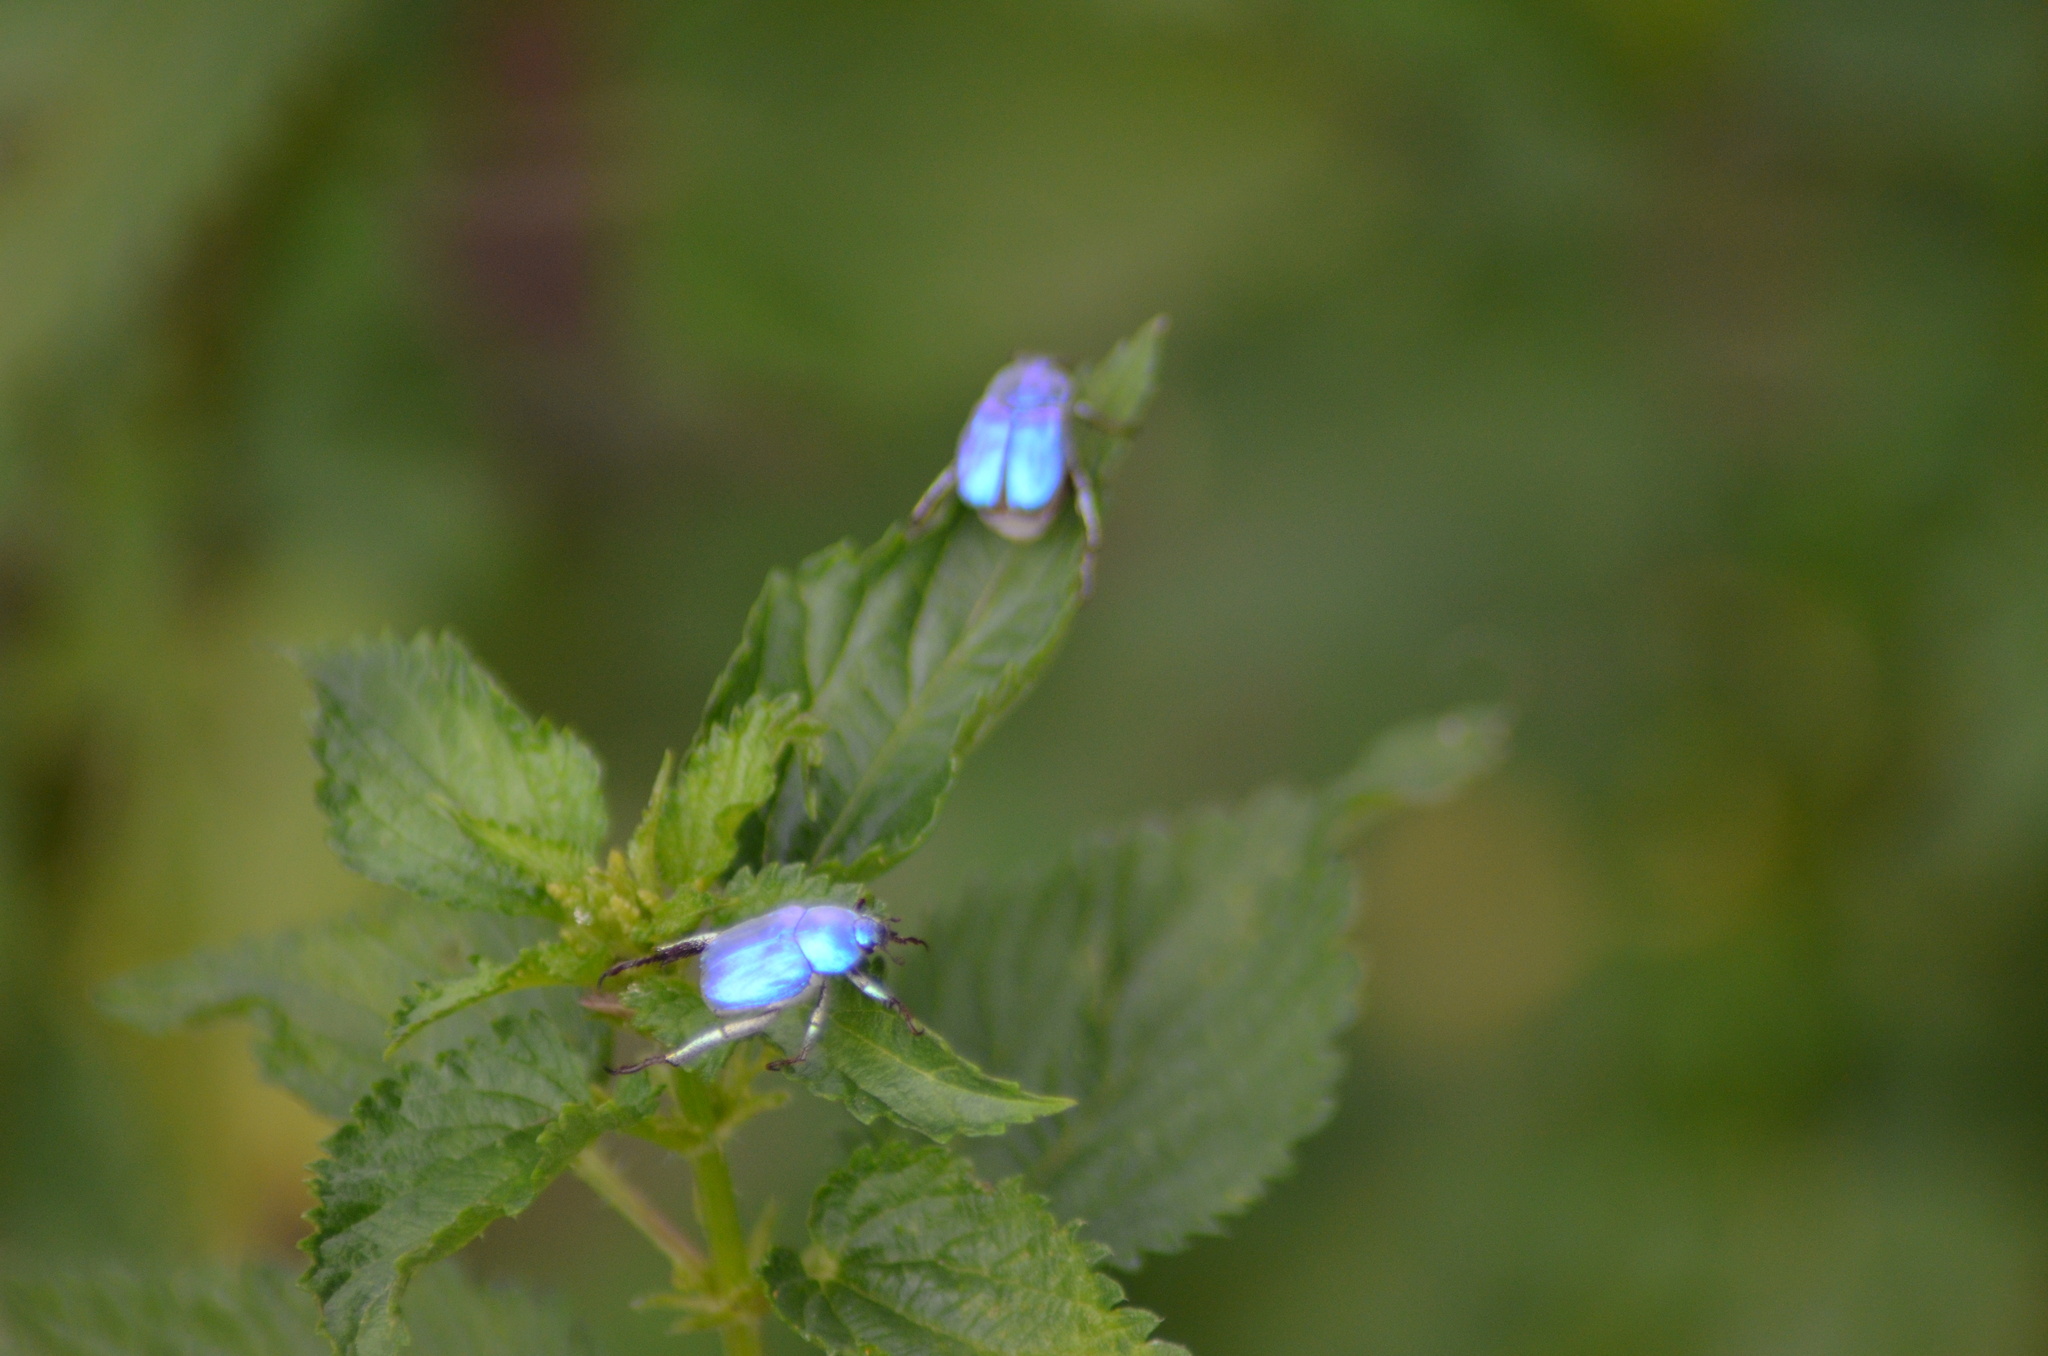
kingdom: Animalia
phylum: Arthropoda
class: Insecta
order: Coleoptera
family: Scarabaeidae
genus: Hoplia
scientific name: Hoplia coerulea
